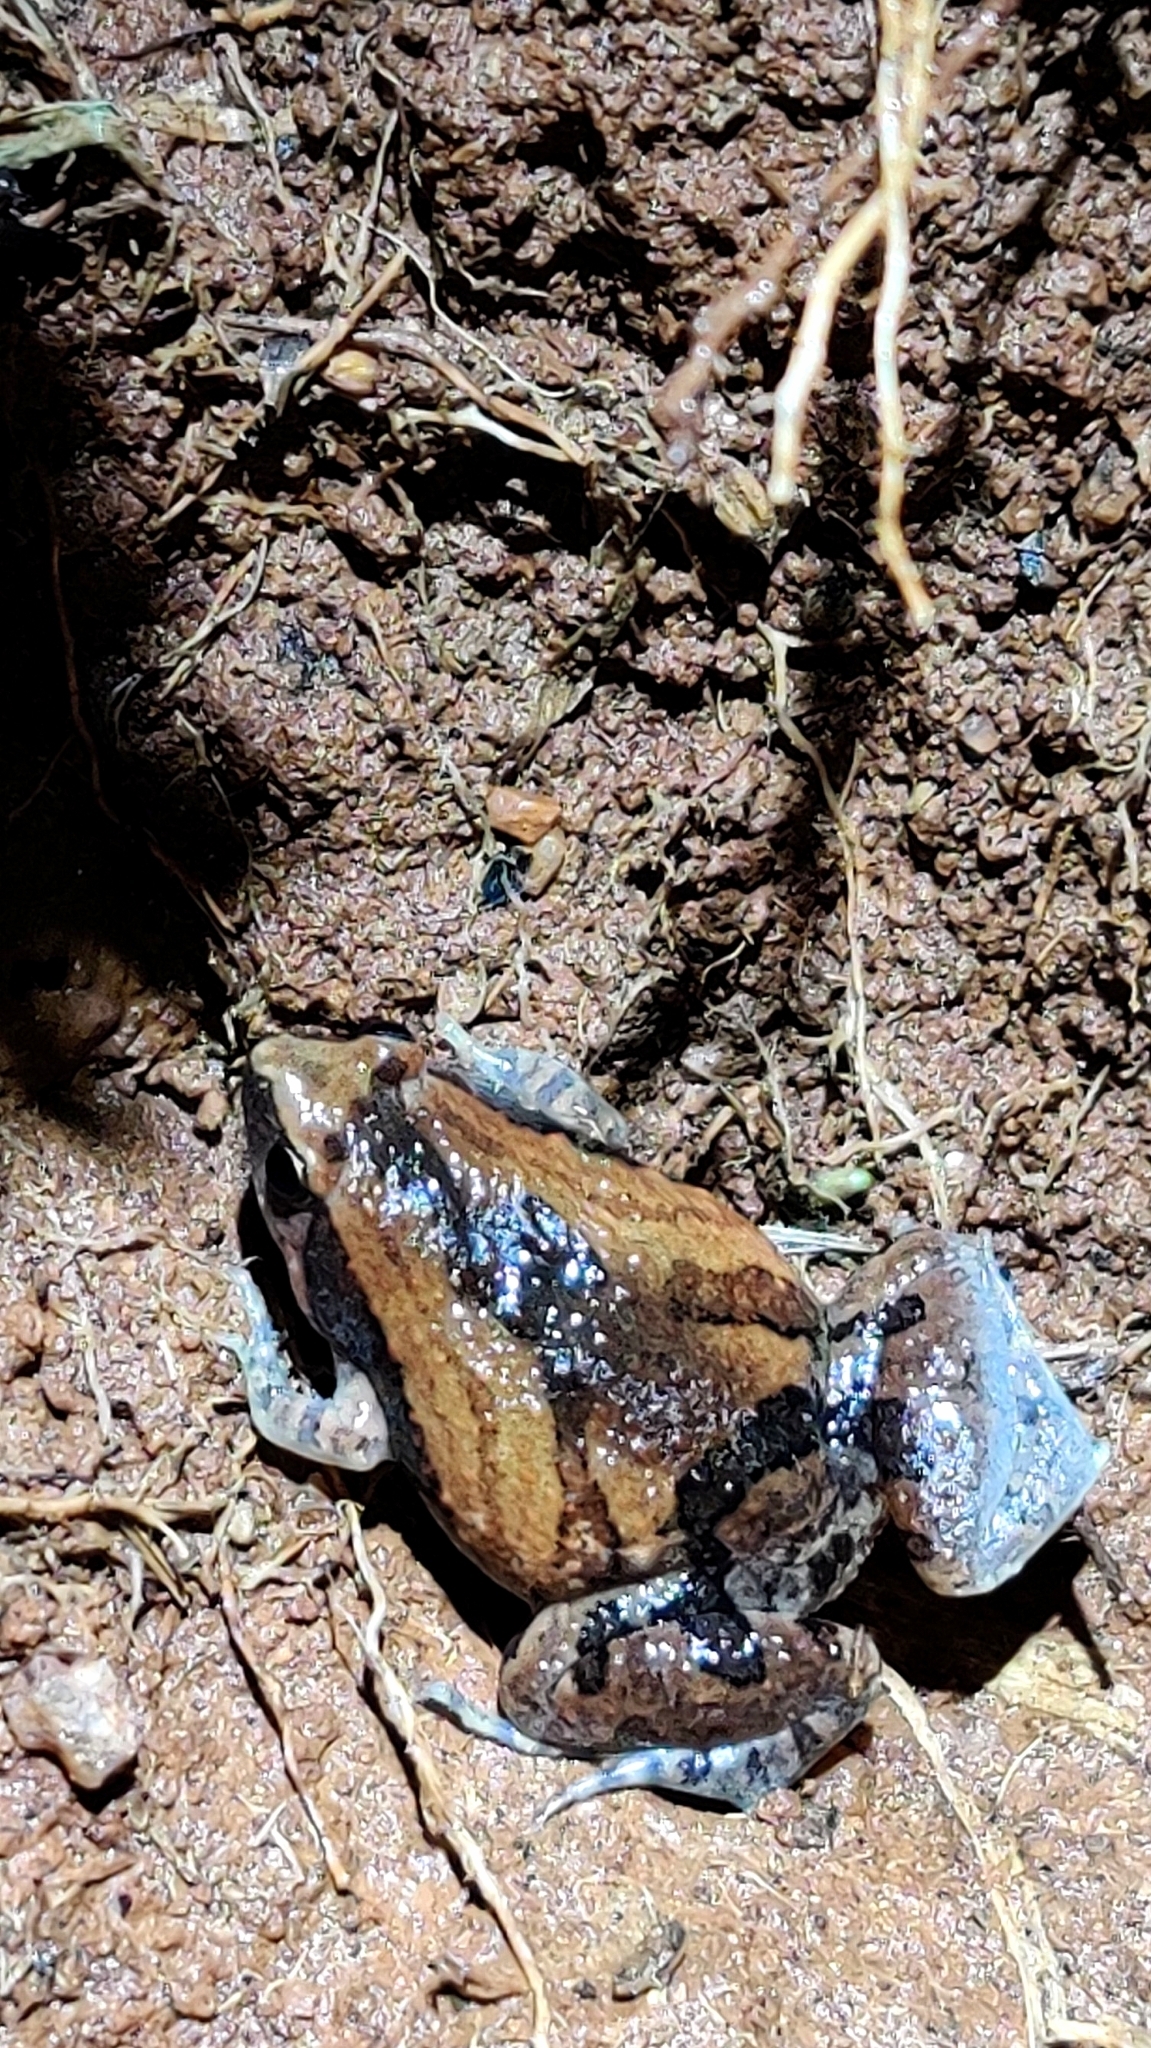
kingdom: Animalia
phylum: Chordata
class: Amphibia
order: Anura
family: Microhylidae
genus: Microhyla
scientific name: Microhyla ornata
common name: Ant frog
